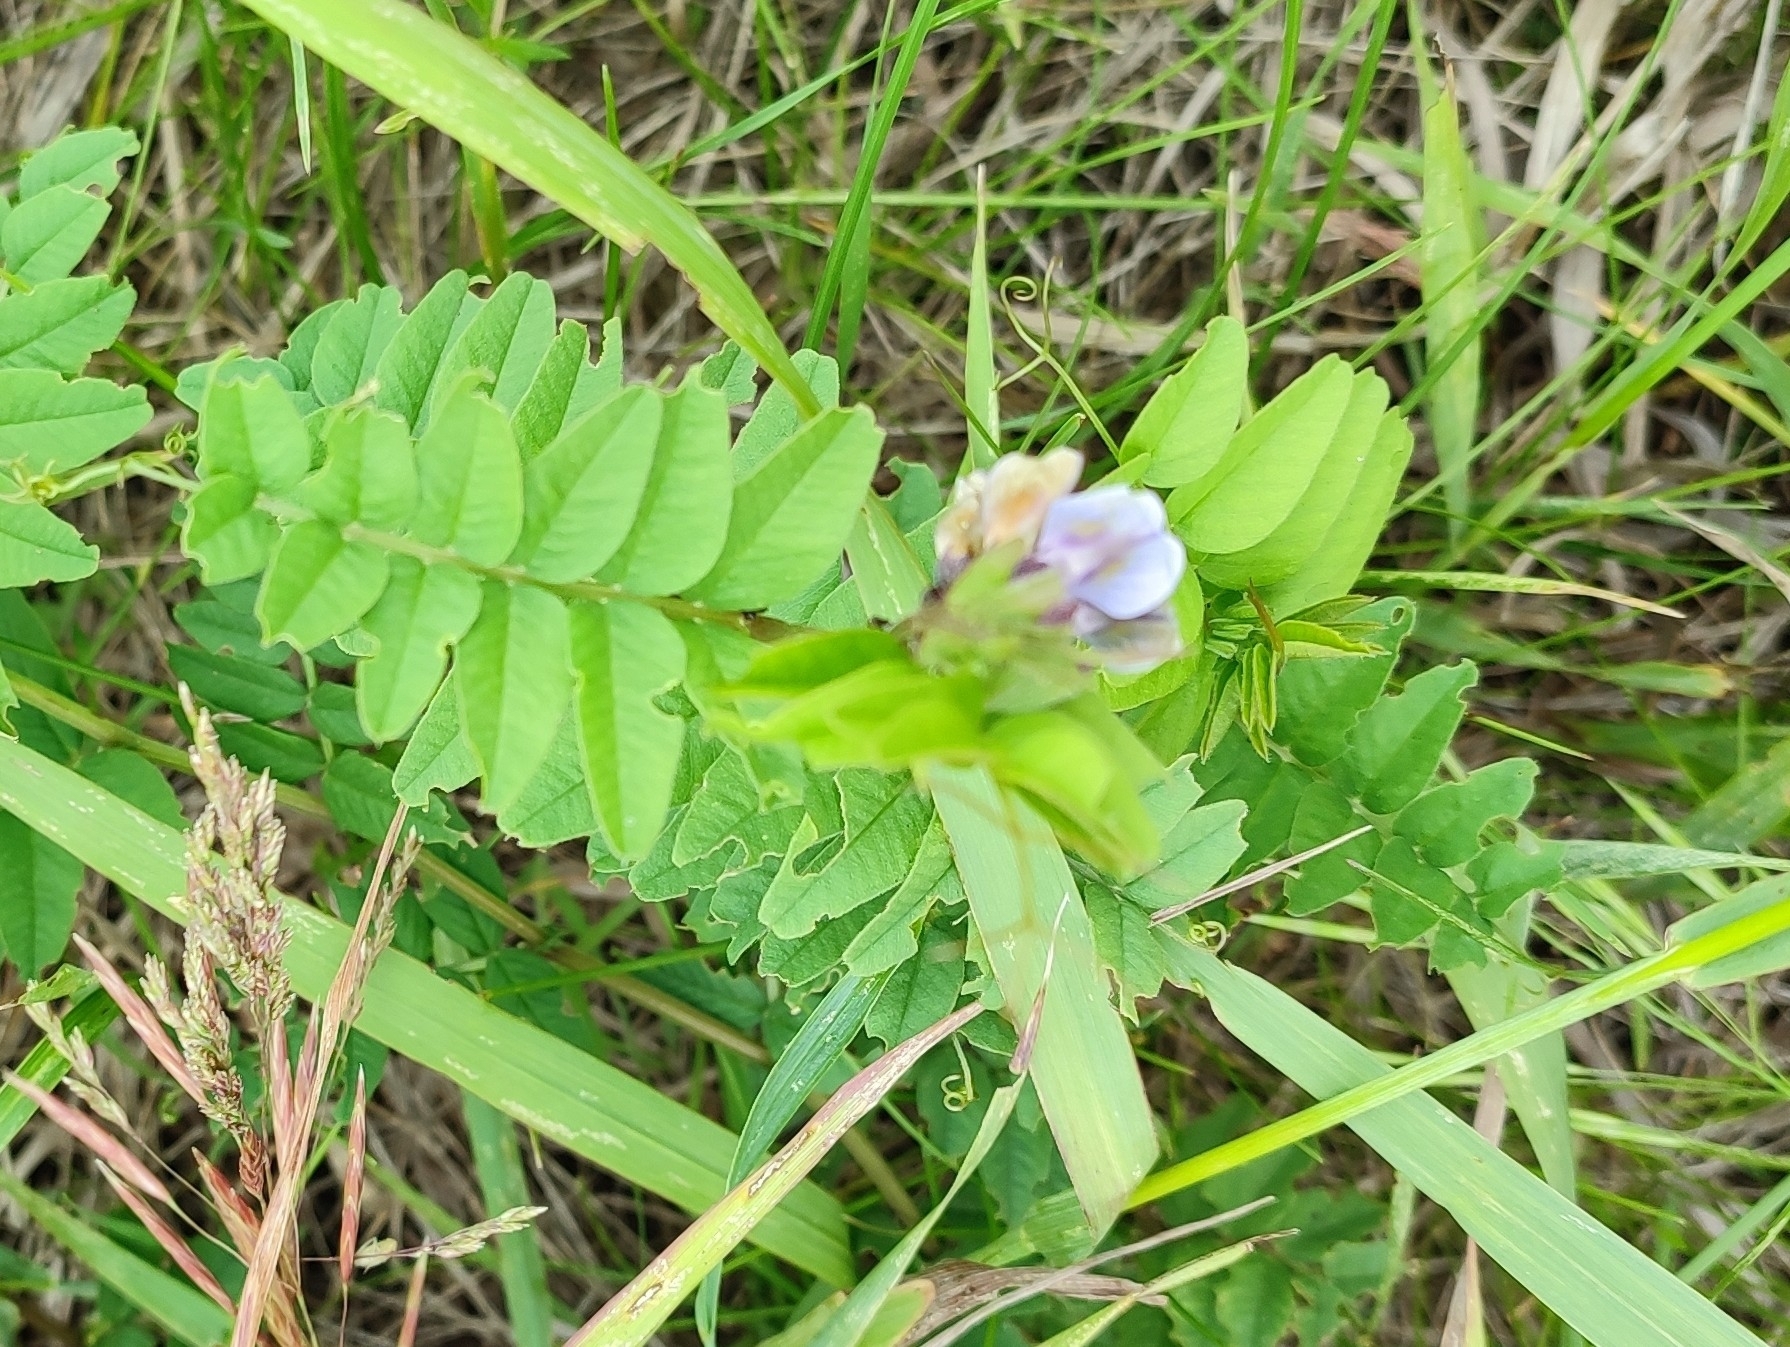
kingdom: Plantae
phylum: Tracheophyta
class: Magnoliopsida
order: Fabales
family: Fabaceae
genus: Vicia
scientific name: Vicia sepium
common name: Bush vetch
